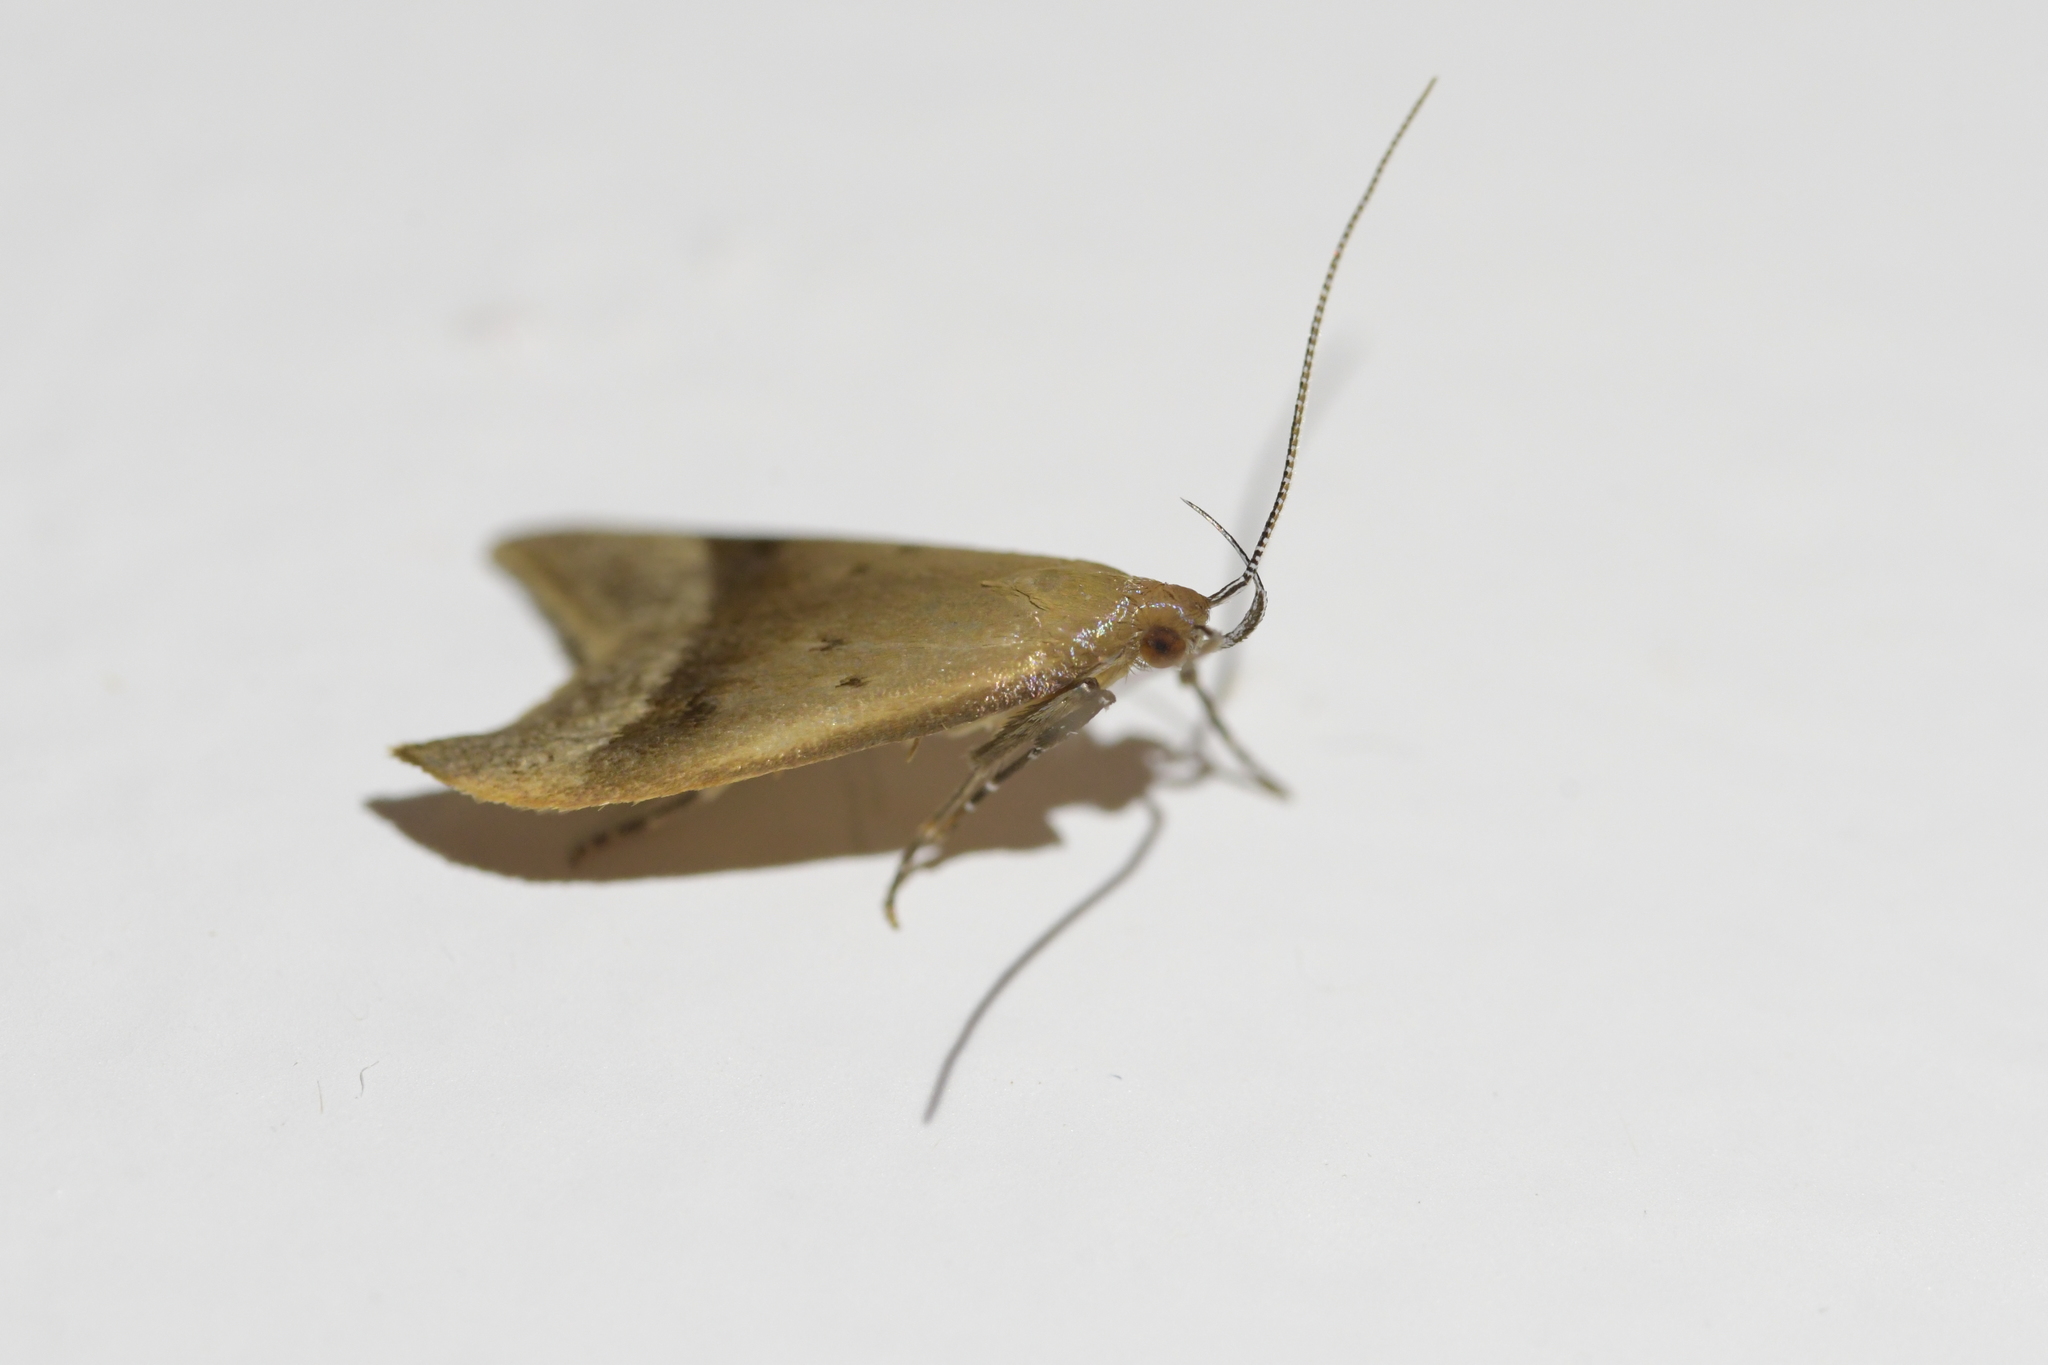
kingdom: Animalia
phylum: Arthropoda
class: Insecta
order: Lepidoptera
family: Oecophoridae
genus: Gymnobathra
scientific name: Gymnobathra hyetodes
